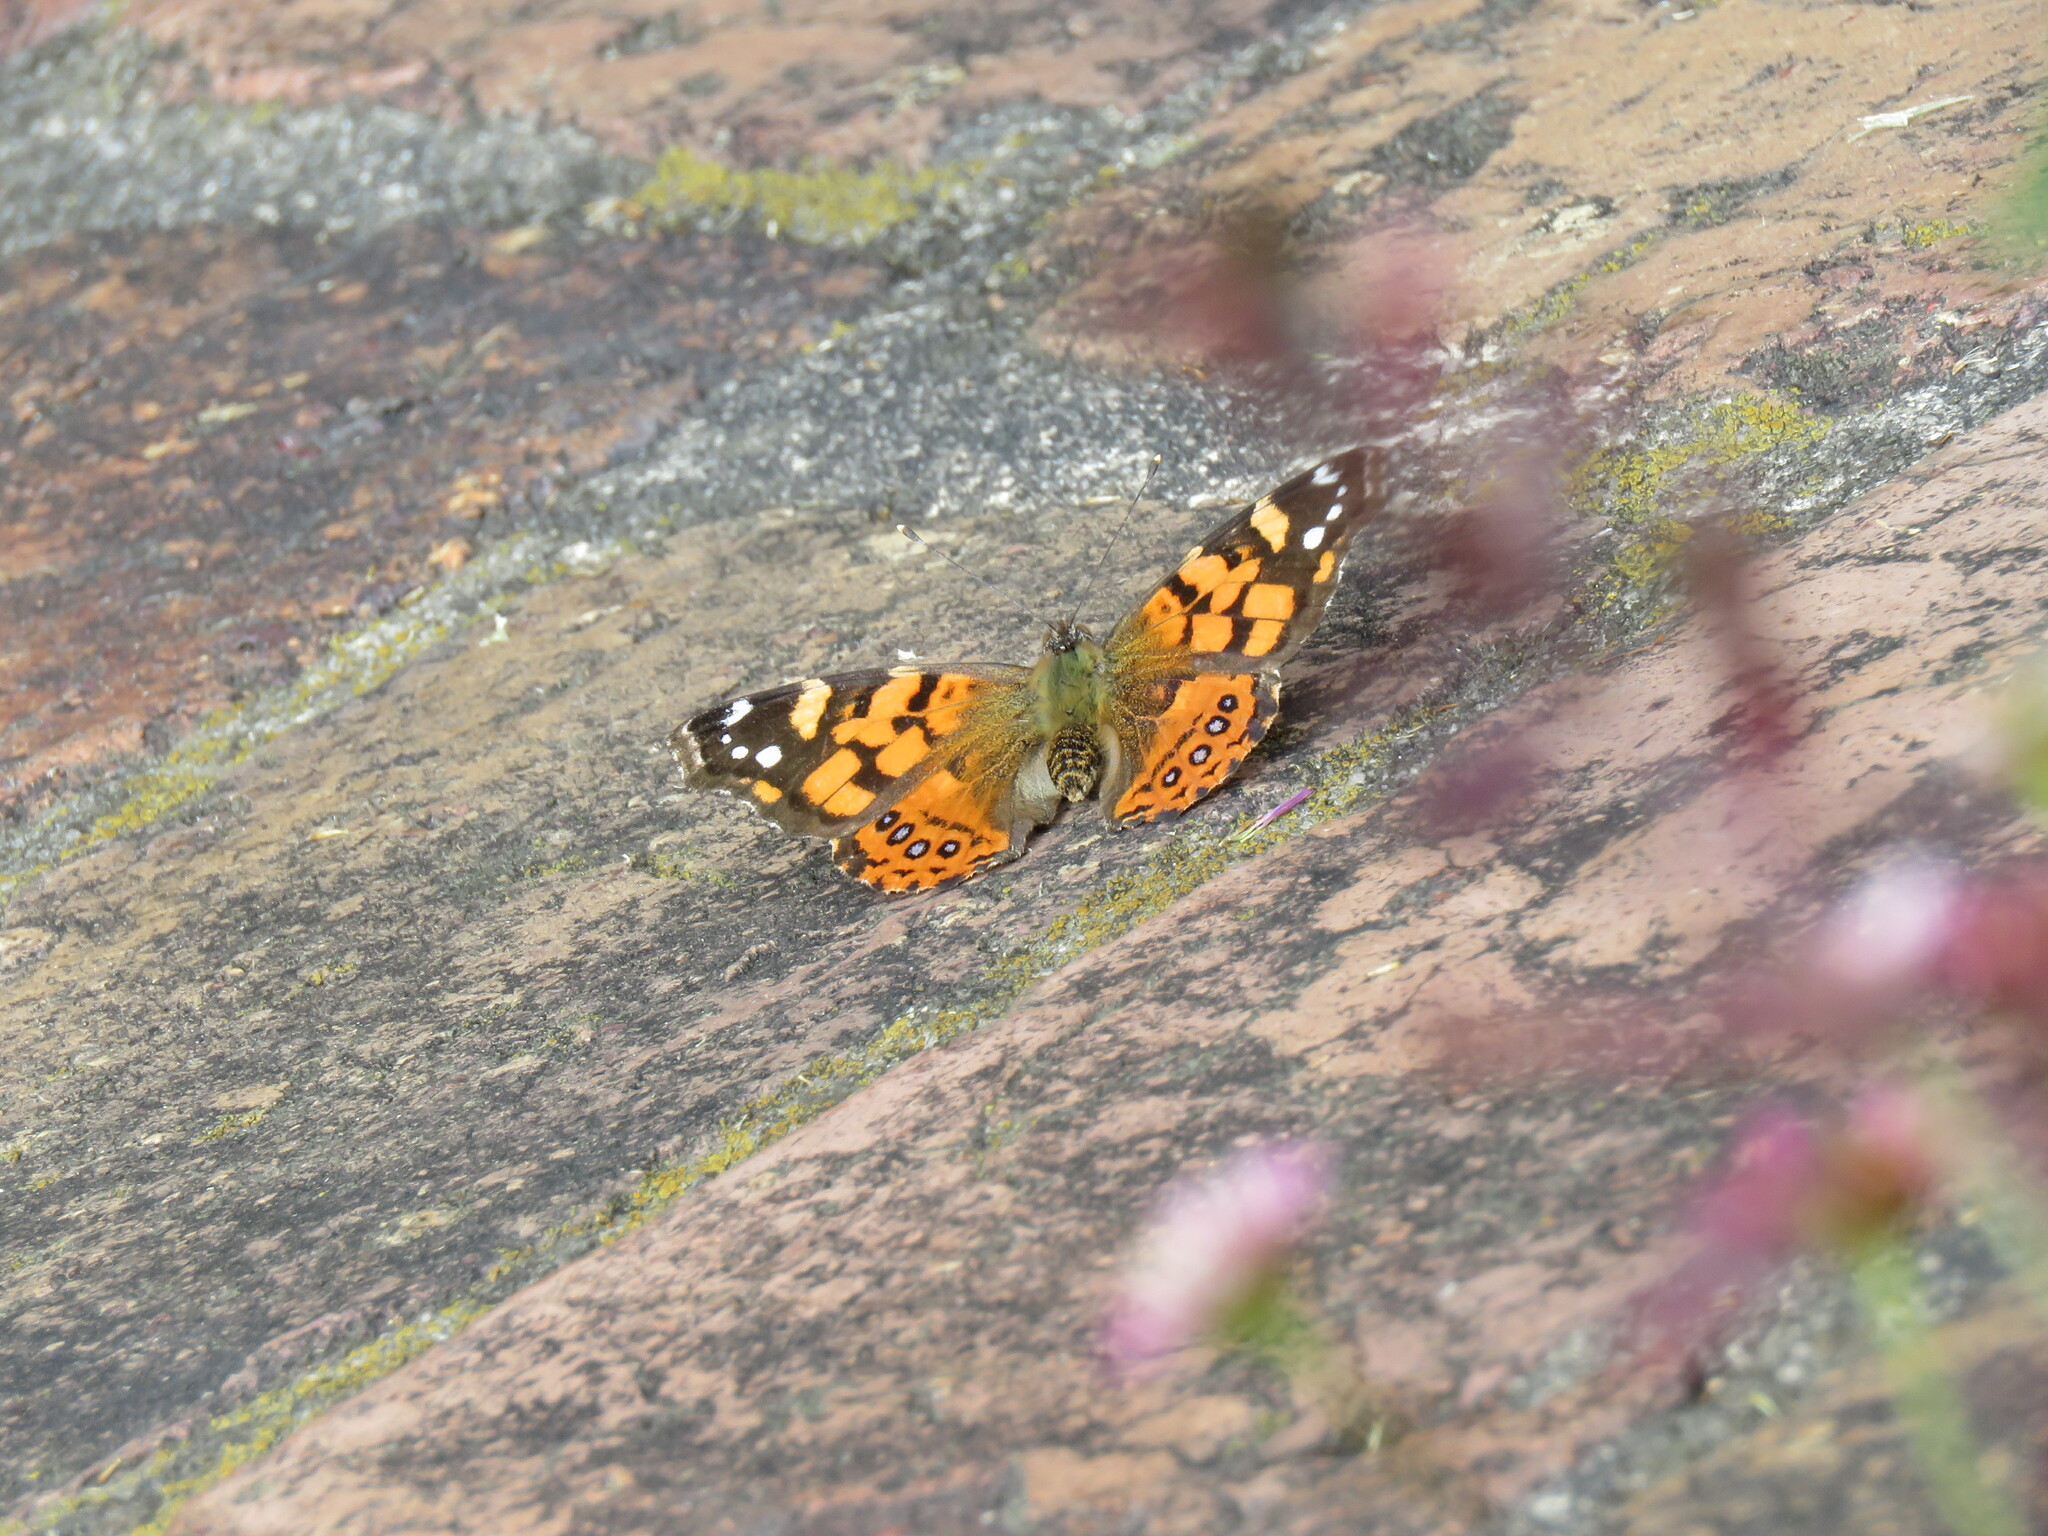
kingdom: Animalia
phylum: Arthropoda
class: Insecta
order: Lepidoptera
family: Nymphalidae
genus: Vanessa
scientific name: Vanessa carye
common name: Subtropical lady
